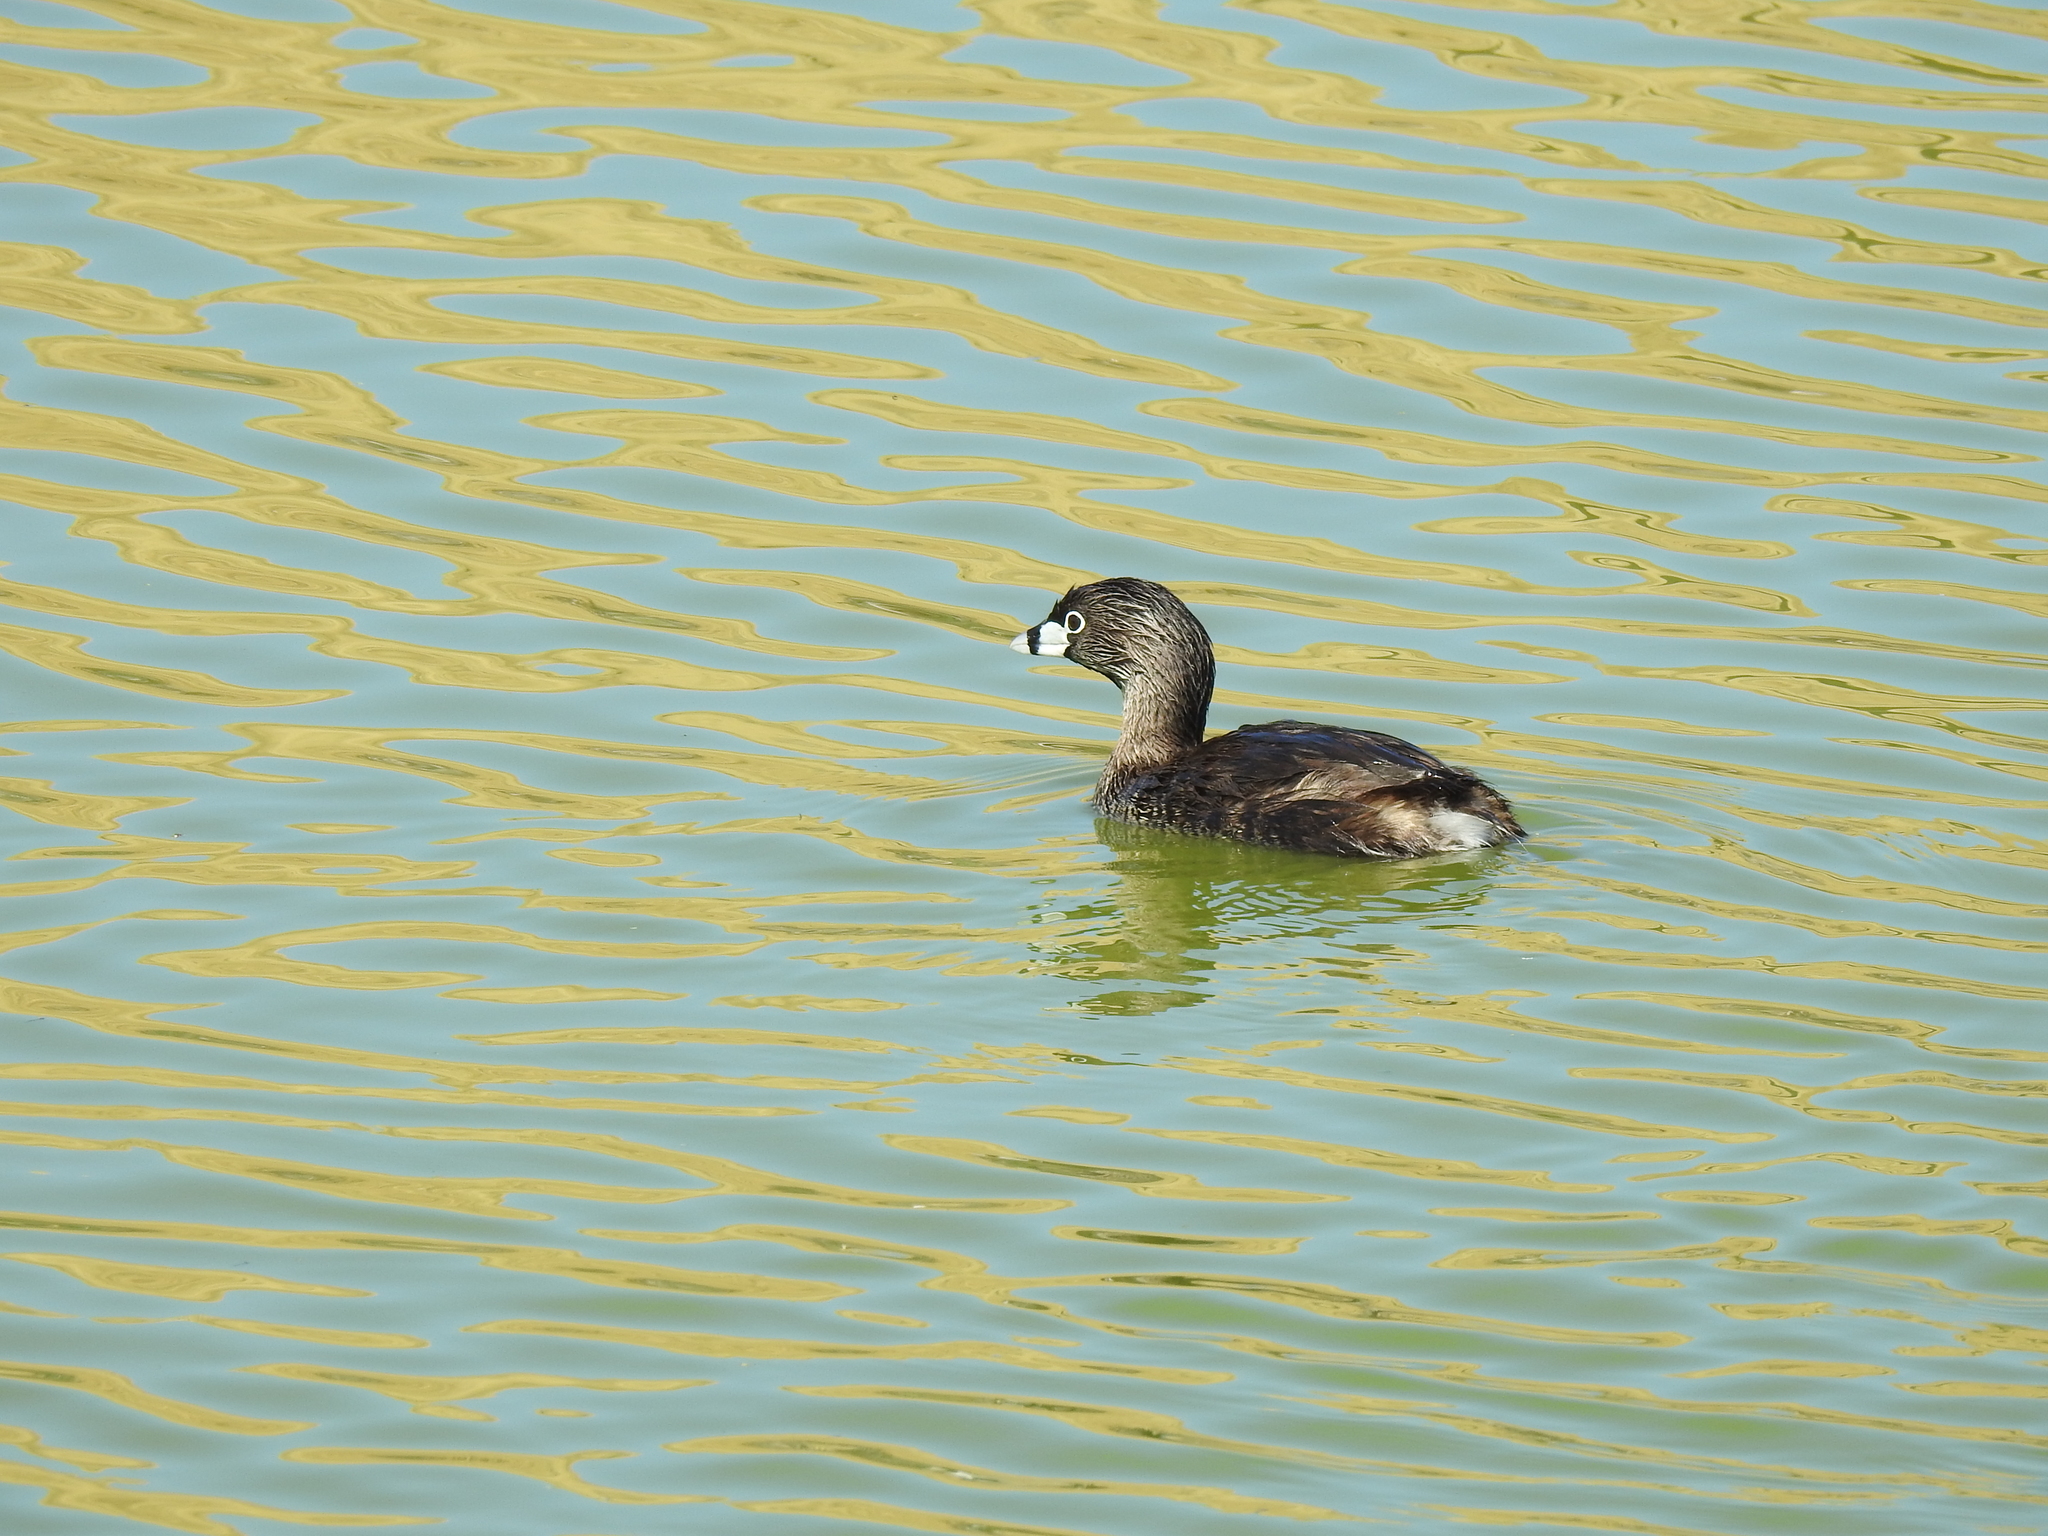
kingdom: Animalia
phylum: Chordata
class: Aves
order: Podicipediformes
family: Podicipedidae
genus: Podilymbus
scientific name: Podilymbus podiceps
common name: Pied-billed grebe
